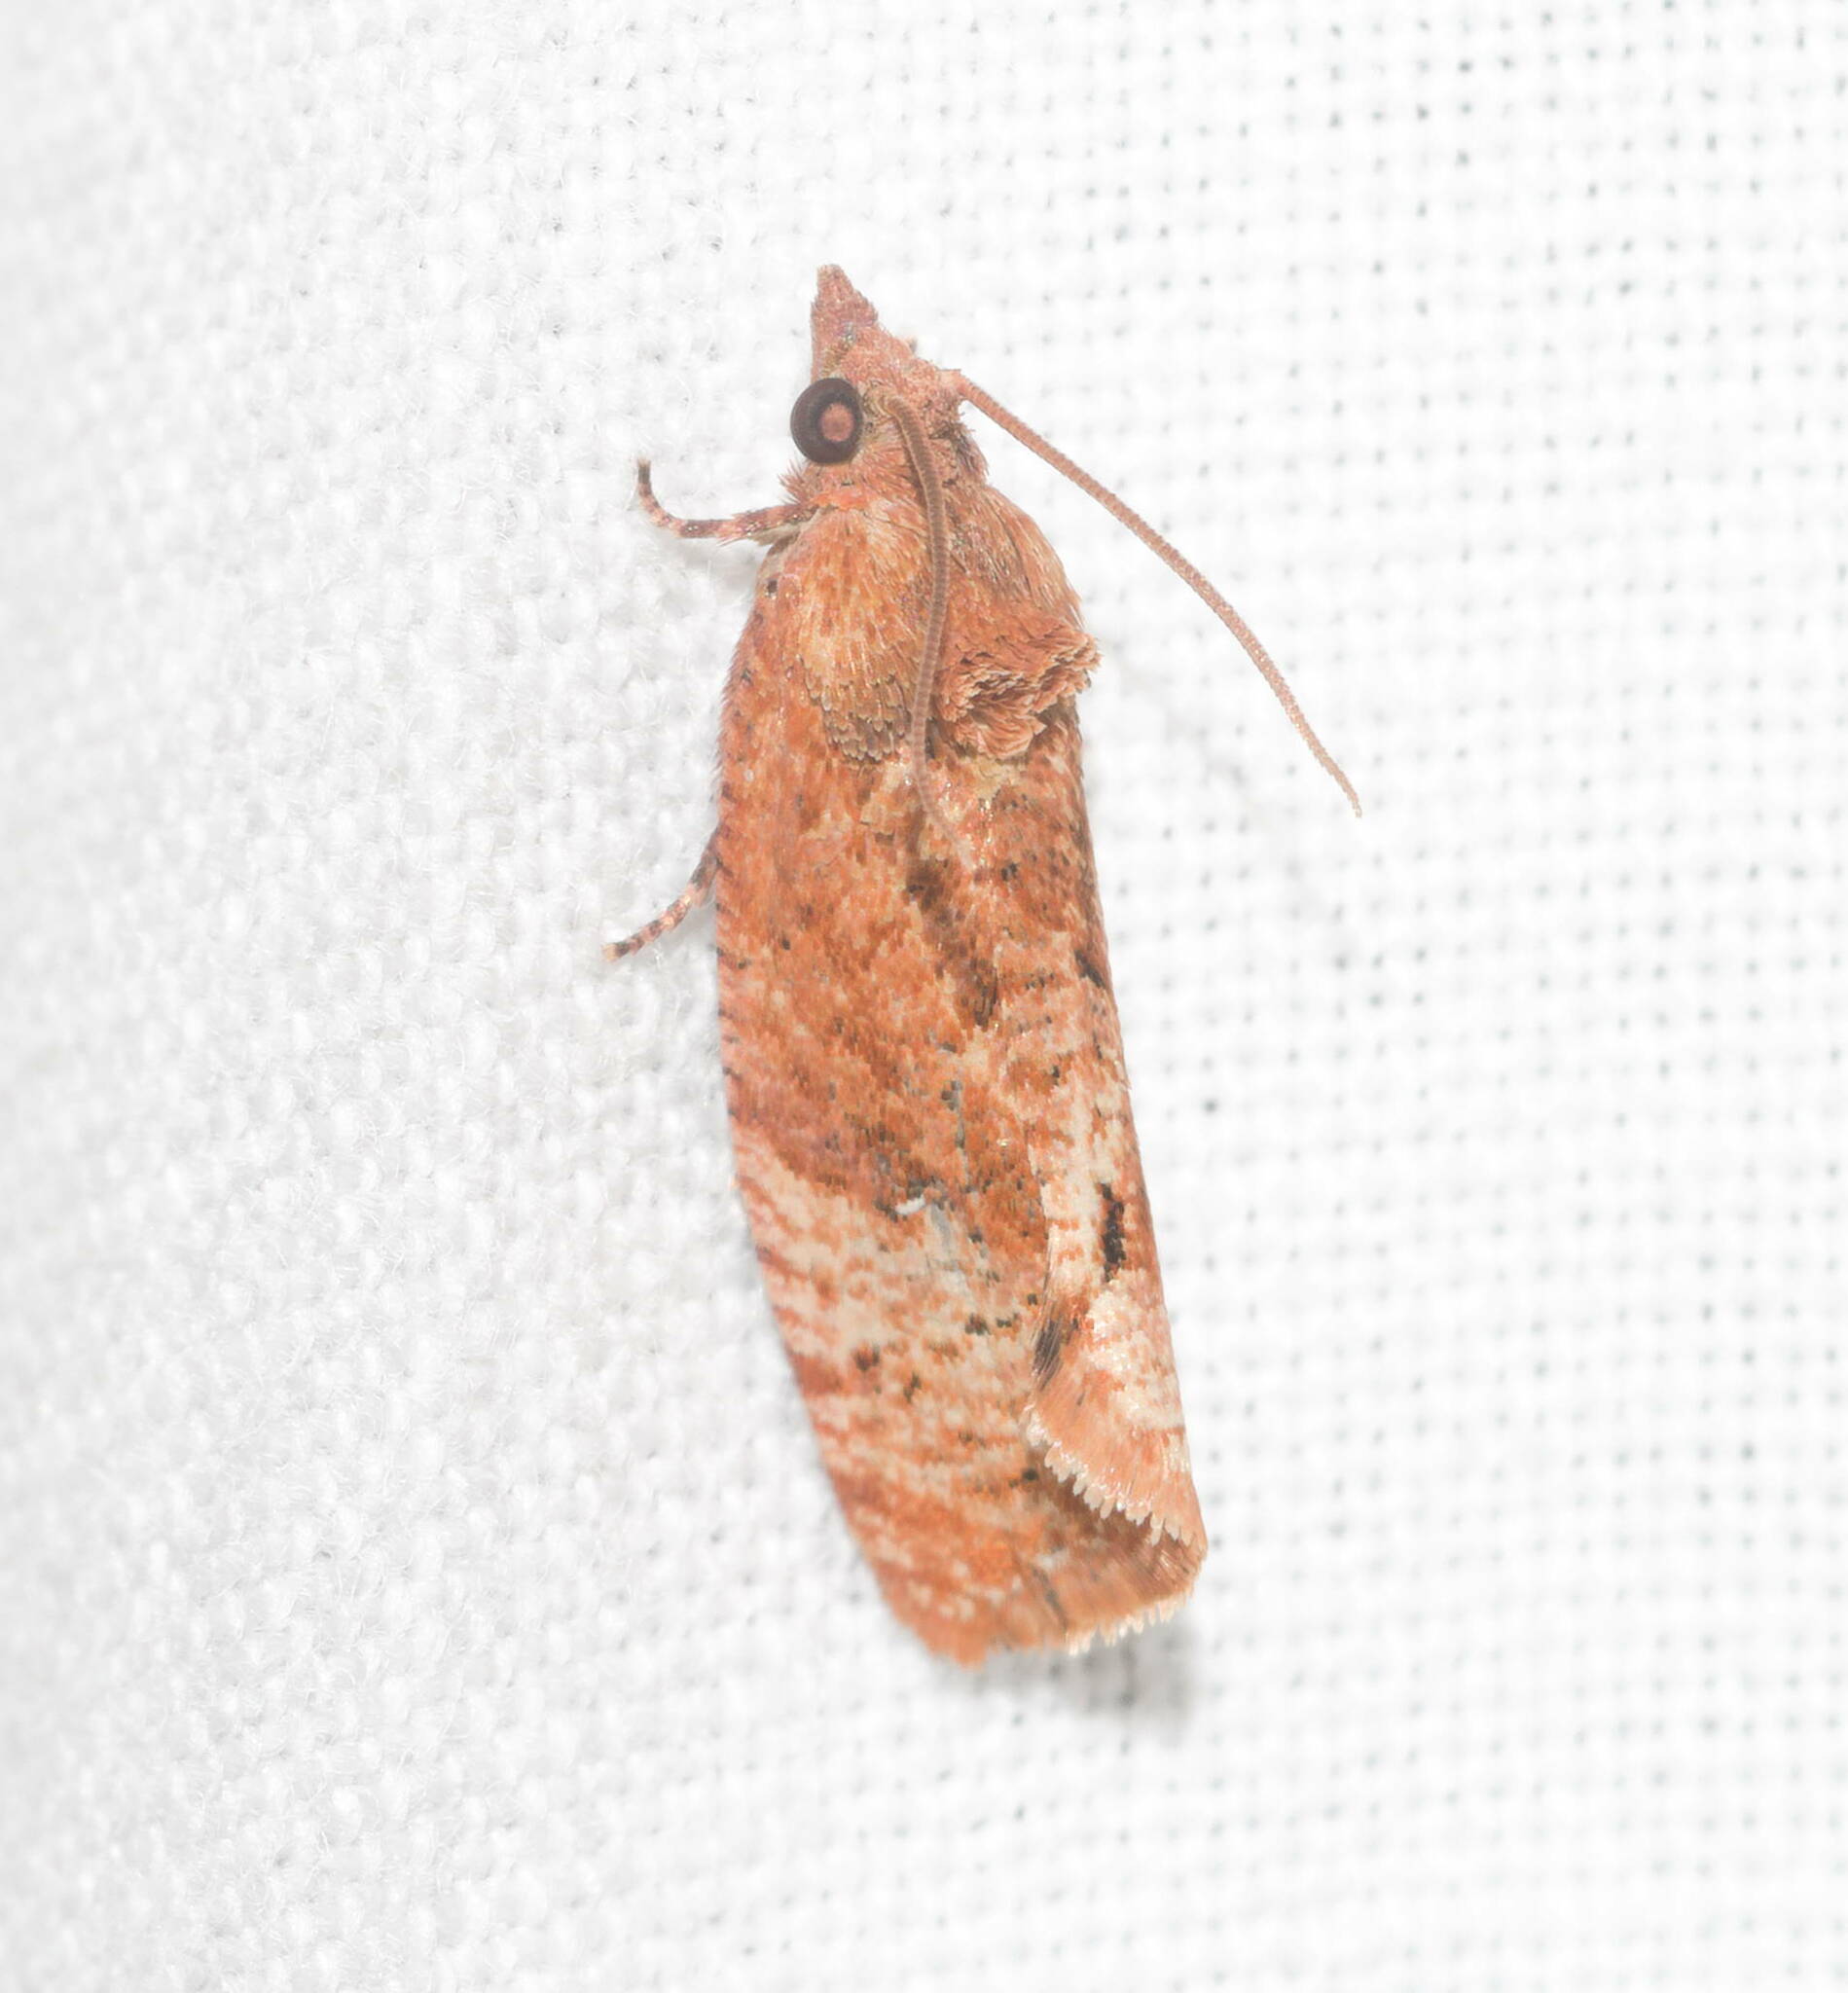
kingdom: Animalia
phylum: Arthropoda
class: Insecta
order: Lepidoptera
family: Tortricidae
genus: Cryptophlebia
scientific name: Cryptophlebia illepida
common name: Moth
